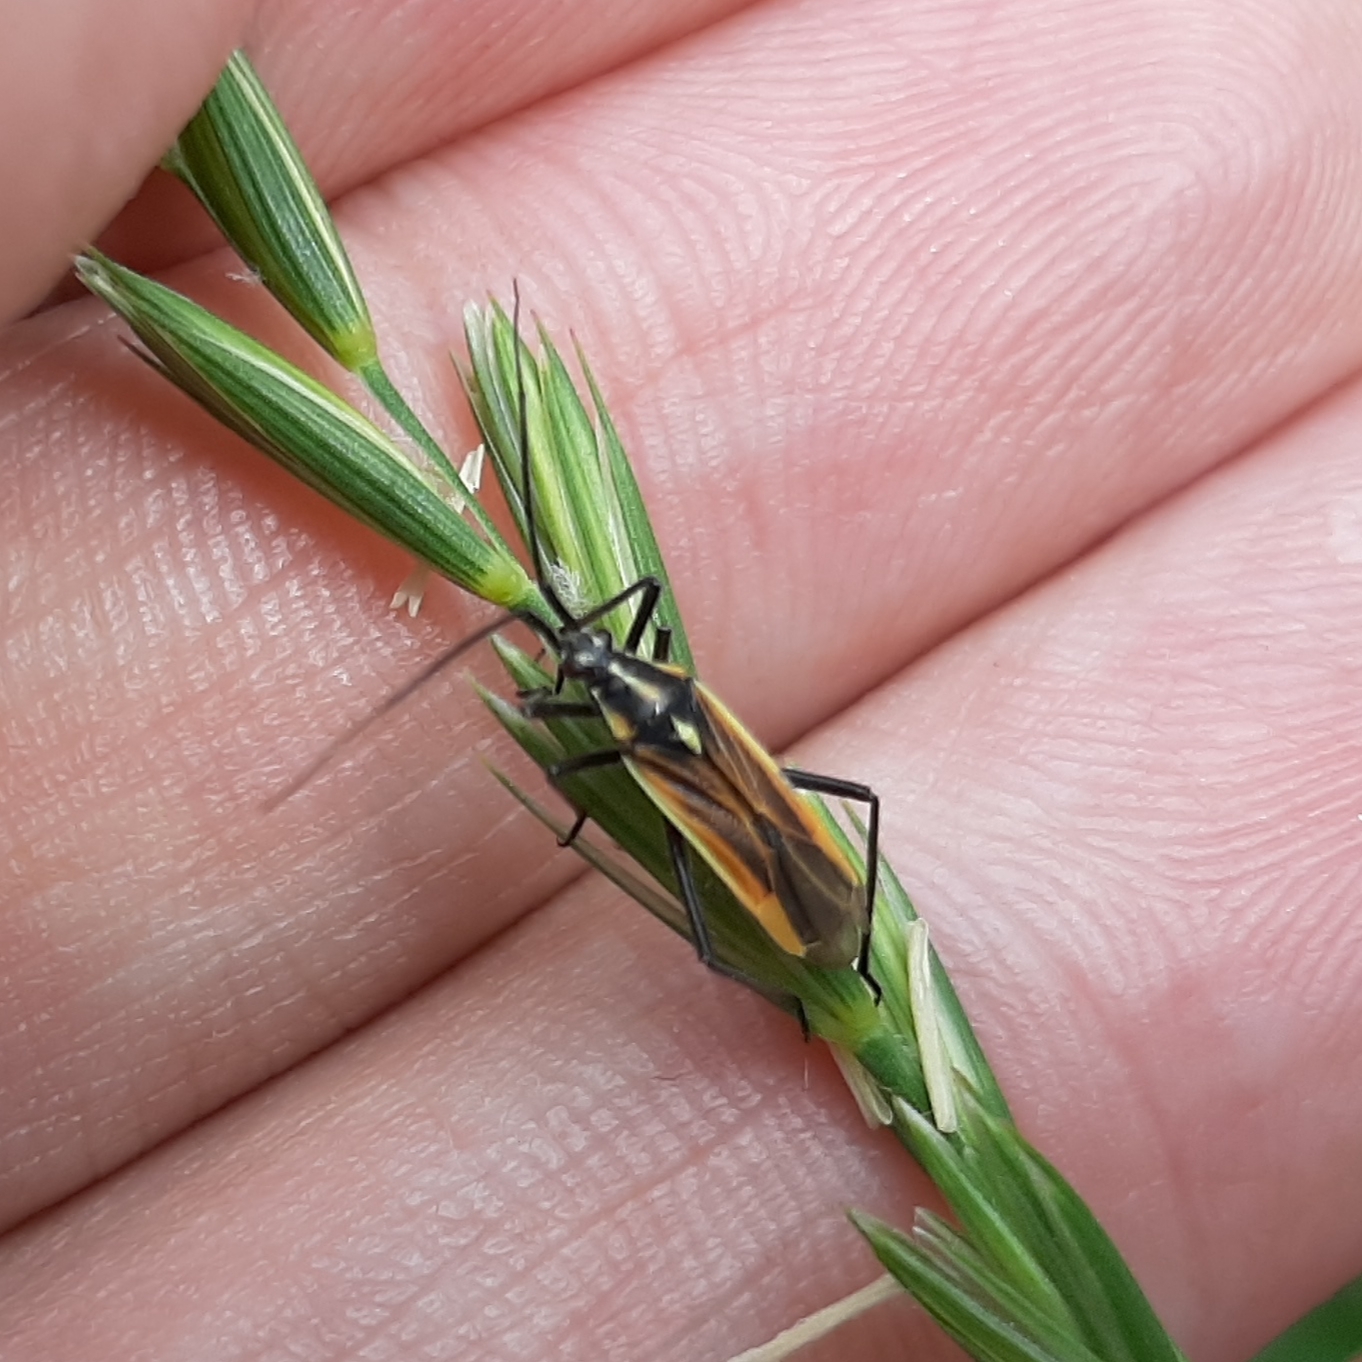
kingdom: Animalia
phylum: Arthropoda
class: Insecta
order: Hemiptera
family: Miridae
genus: Leptopterna
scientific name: Leptopterna dolabrata
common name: Meadow plant bug
